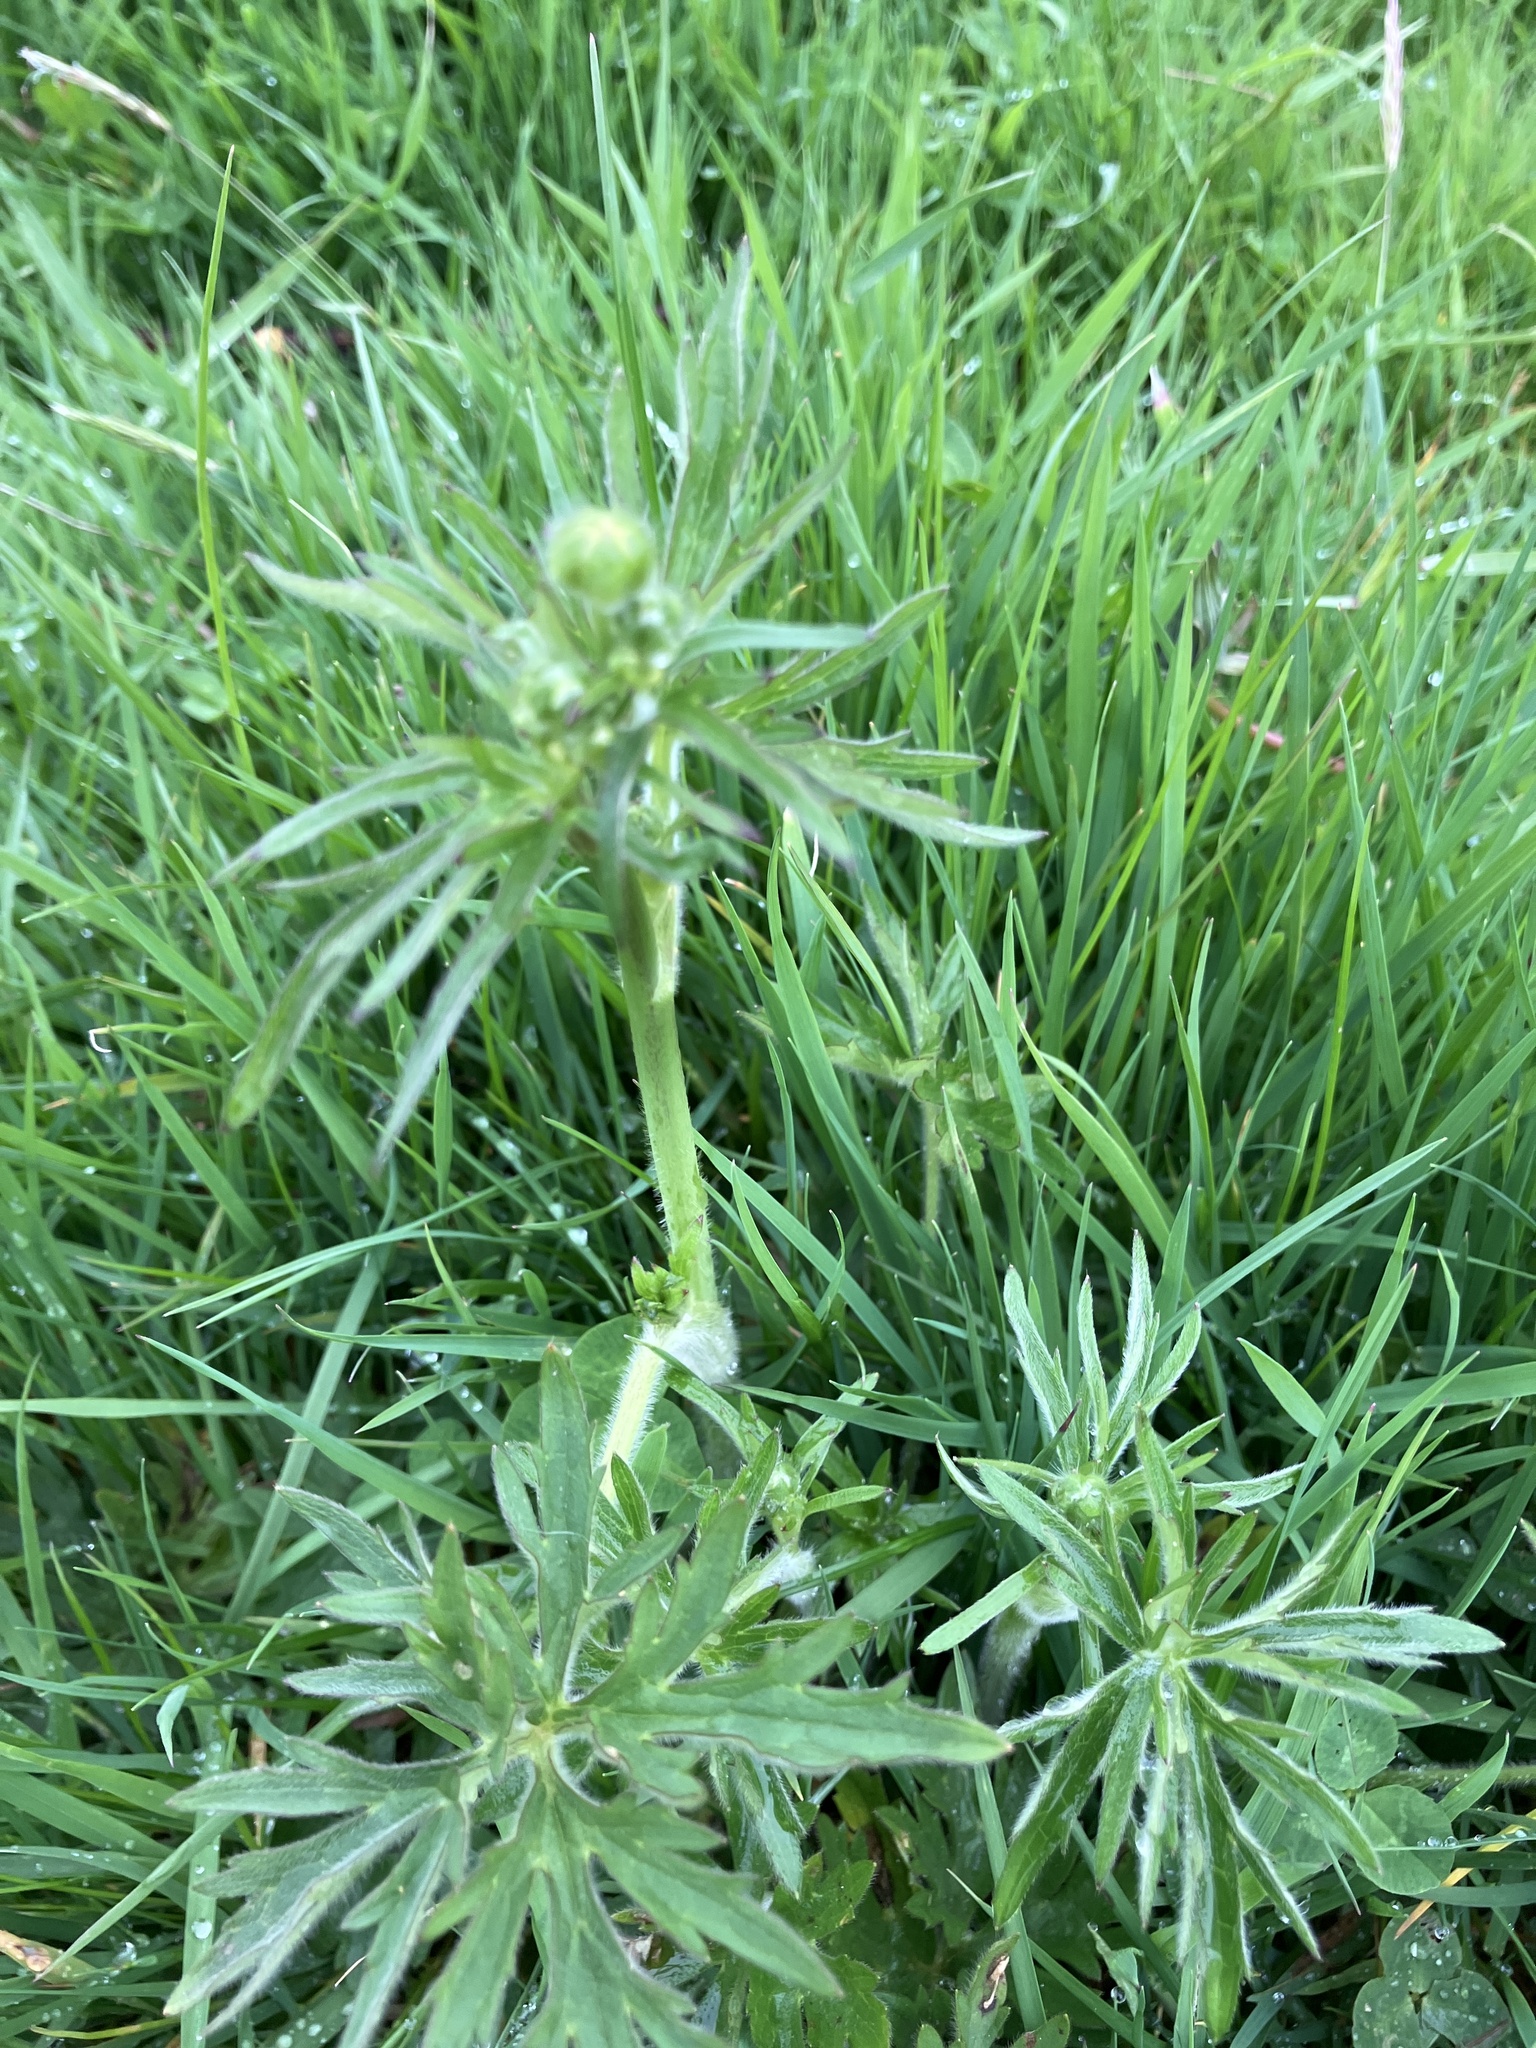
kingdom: Plantae
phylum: Tracheophyta
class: Magnoliopsida
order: Ranunculales
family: Ranunculaceae
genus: Ranunculus
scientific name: Ranunculus acris
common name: Meadow buttercup
